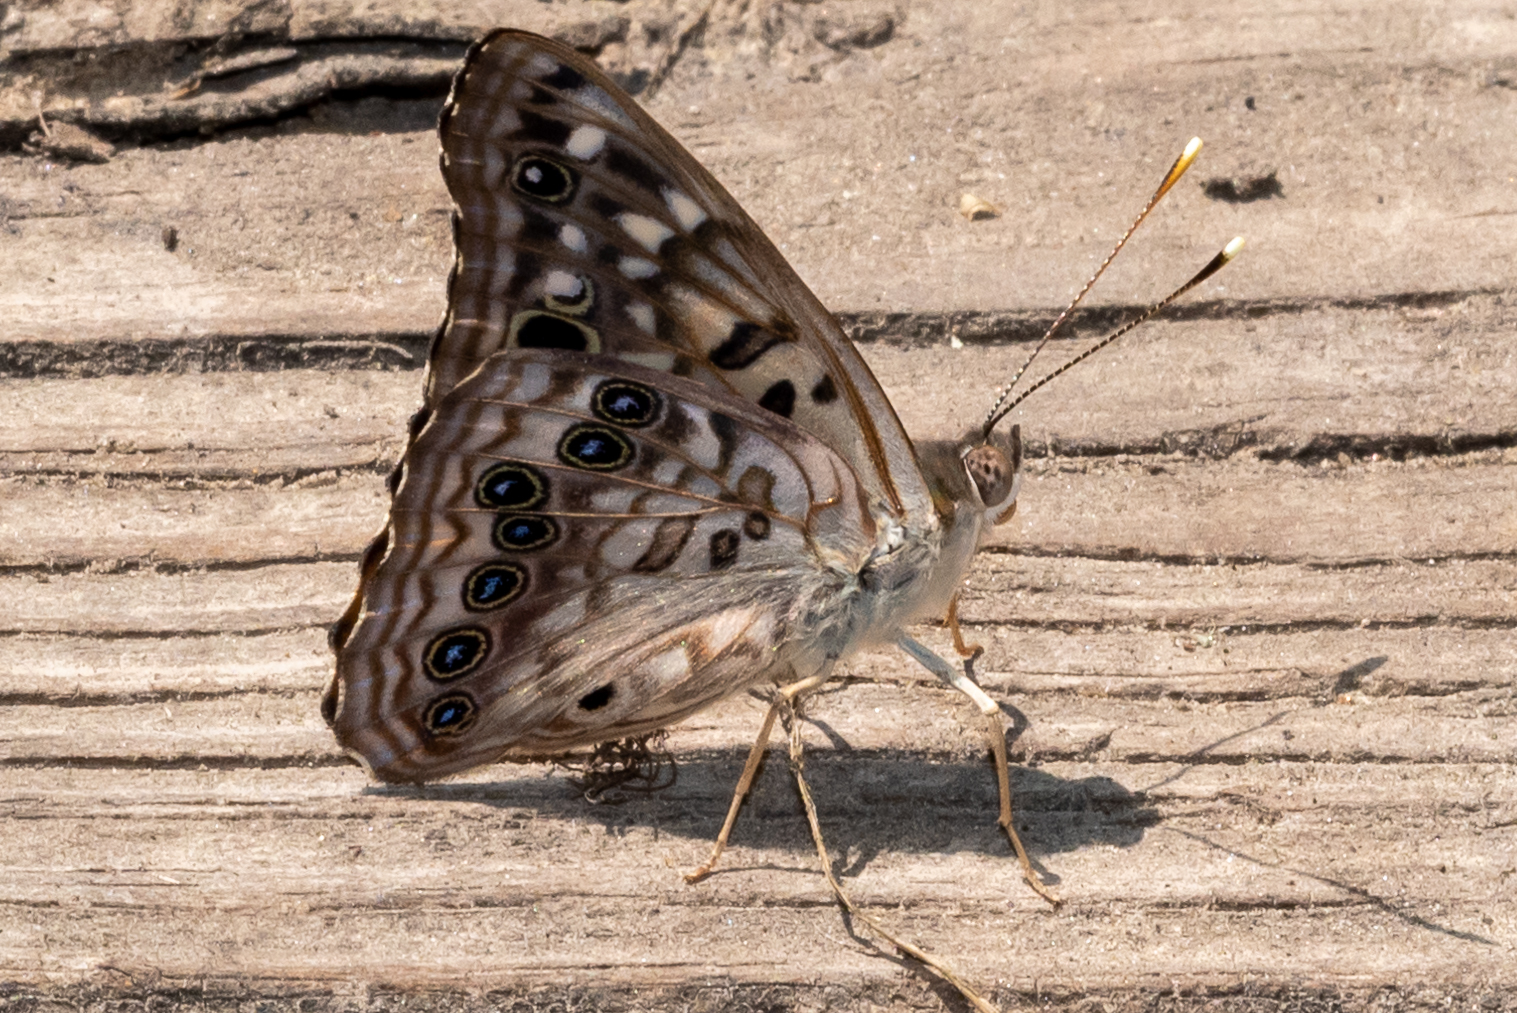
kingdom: Animalia
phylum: Arthropoda
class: Insecta
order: Lepidoptera
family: Nymphalidae
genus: Asterocampa
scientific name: Asterocampa celtis
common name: Hackberry emperor
